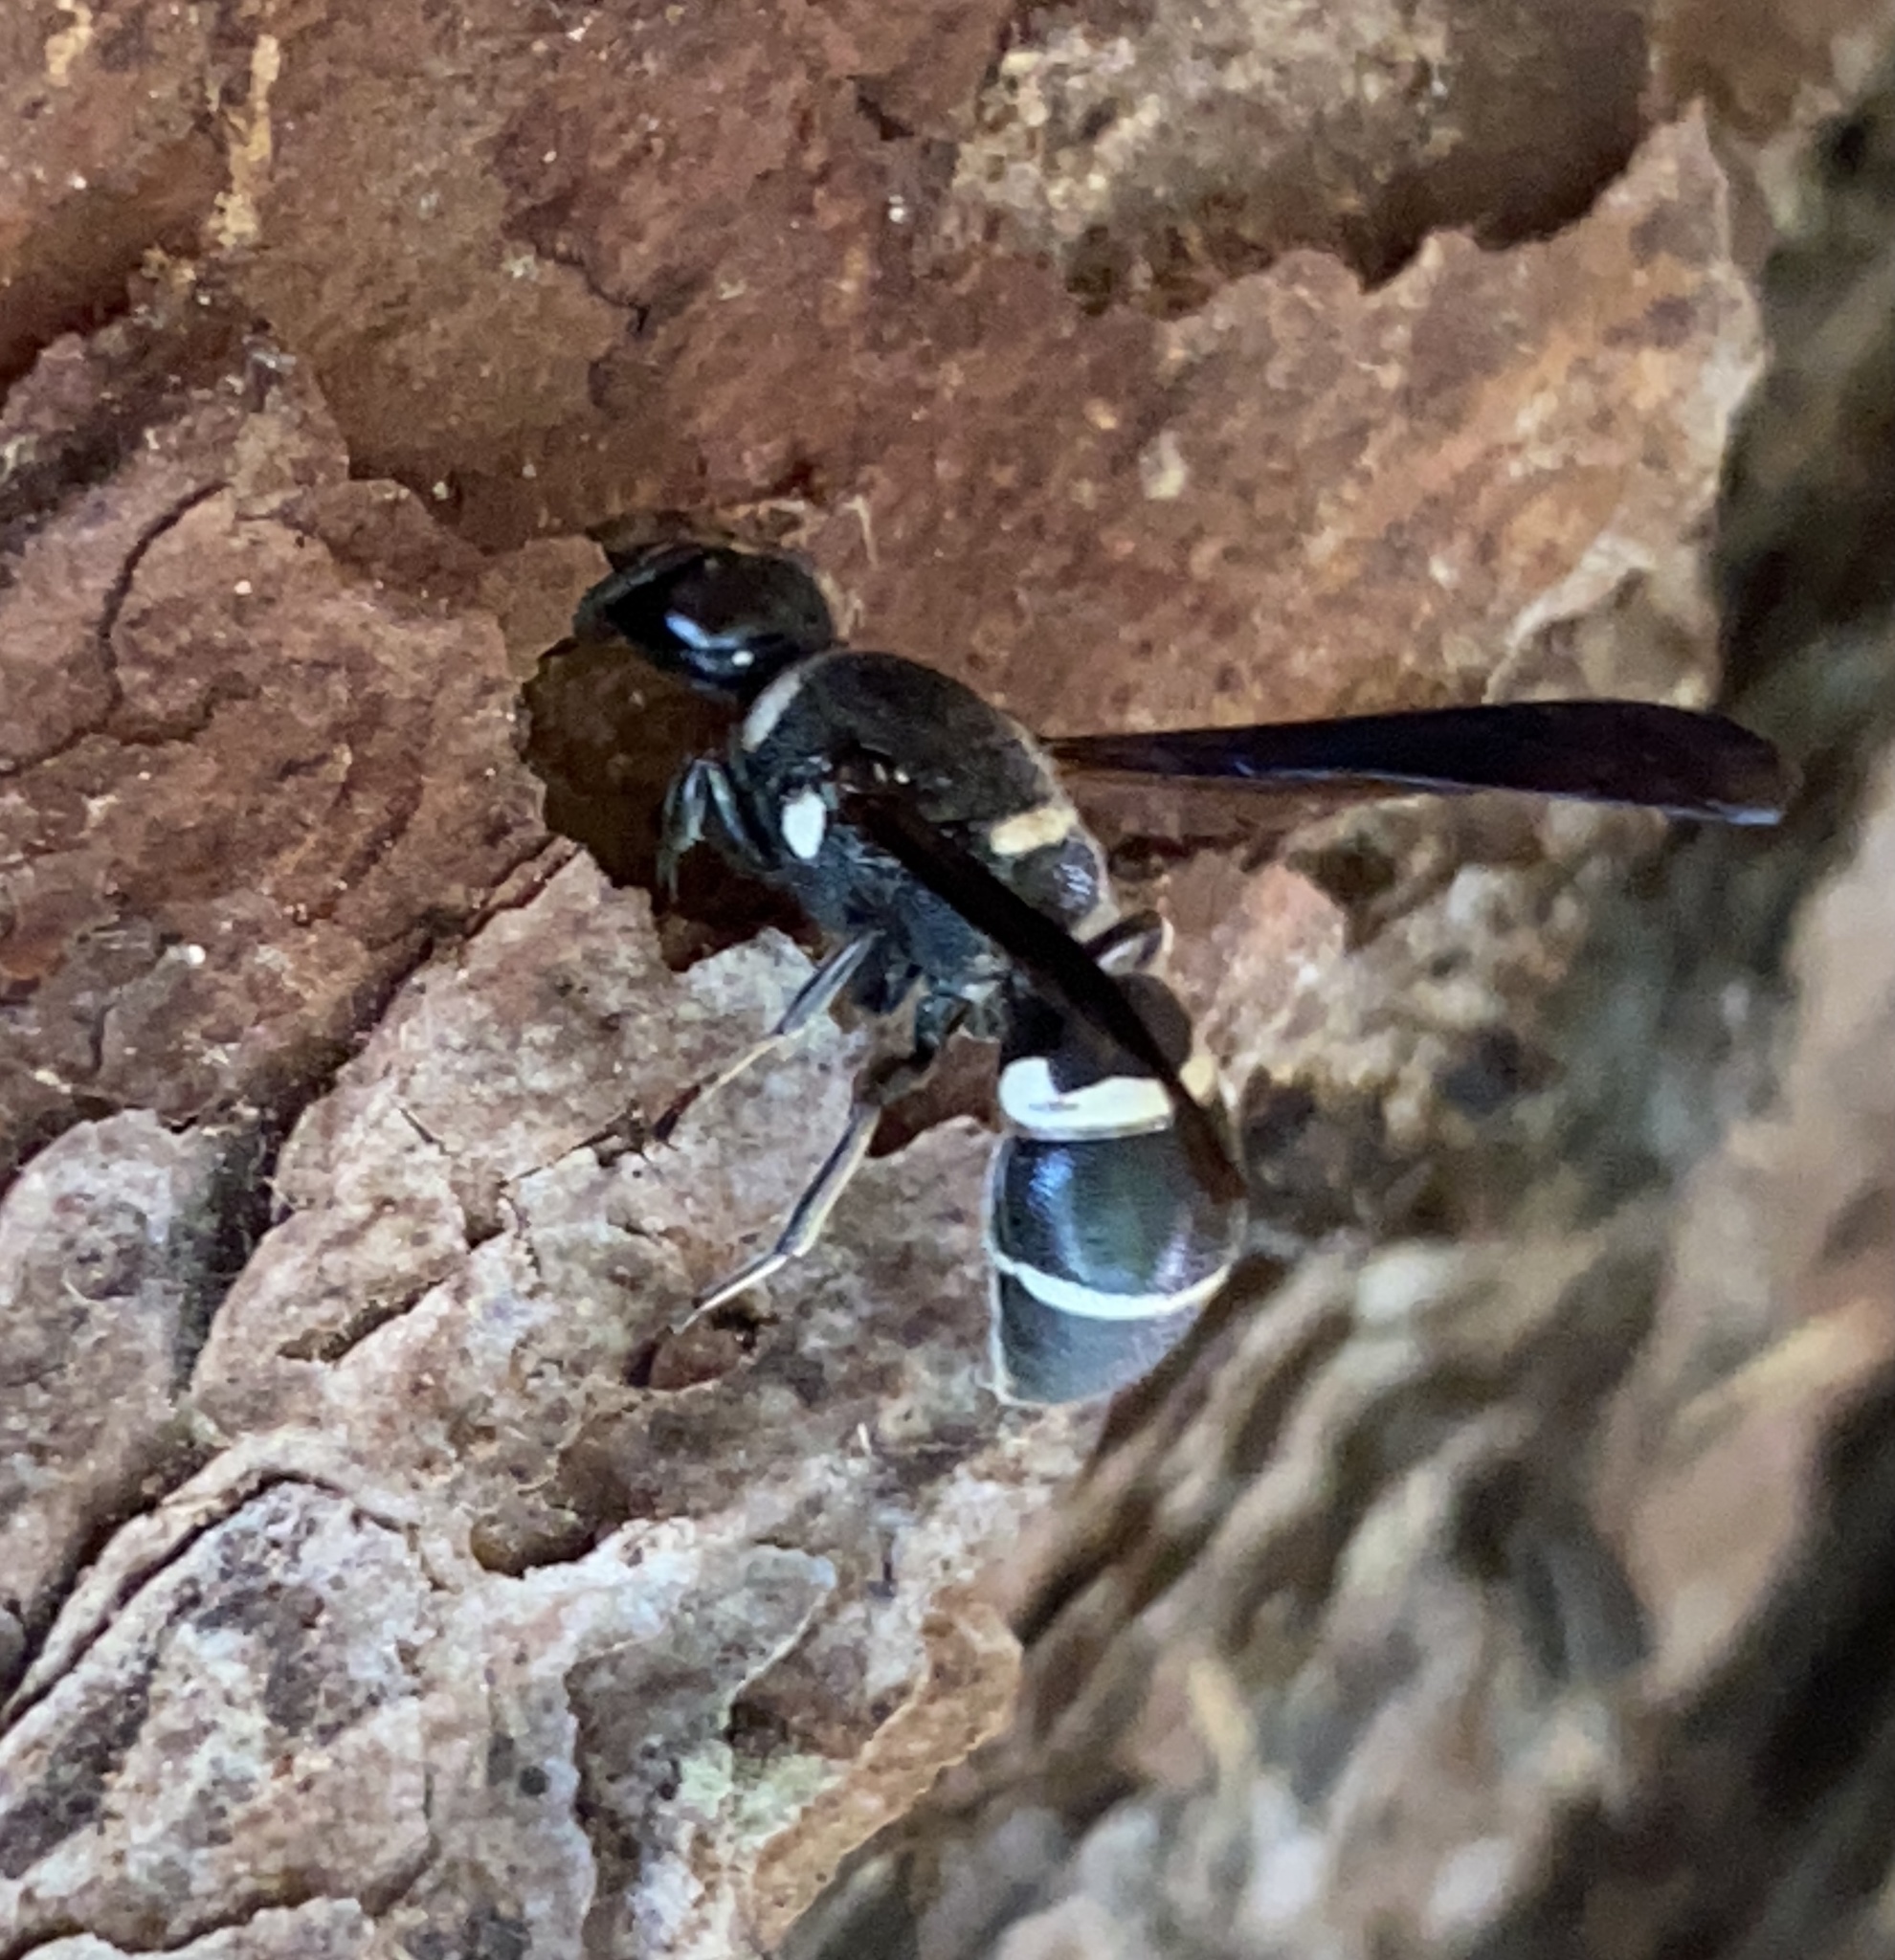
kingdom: Animalia
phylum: Arthropoda
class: Insecta
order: Hymenoptera
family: Eumenidae
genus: Euodynerus
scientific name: Euodynerus megaera
